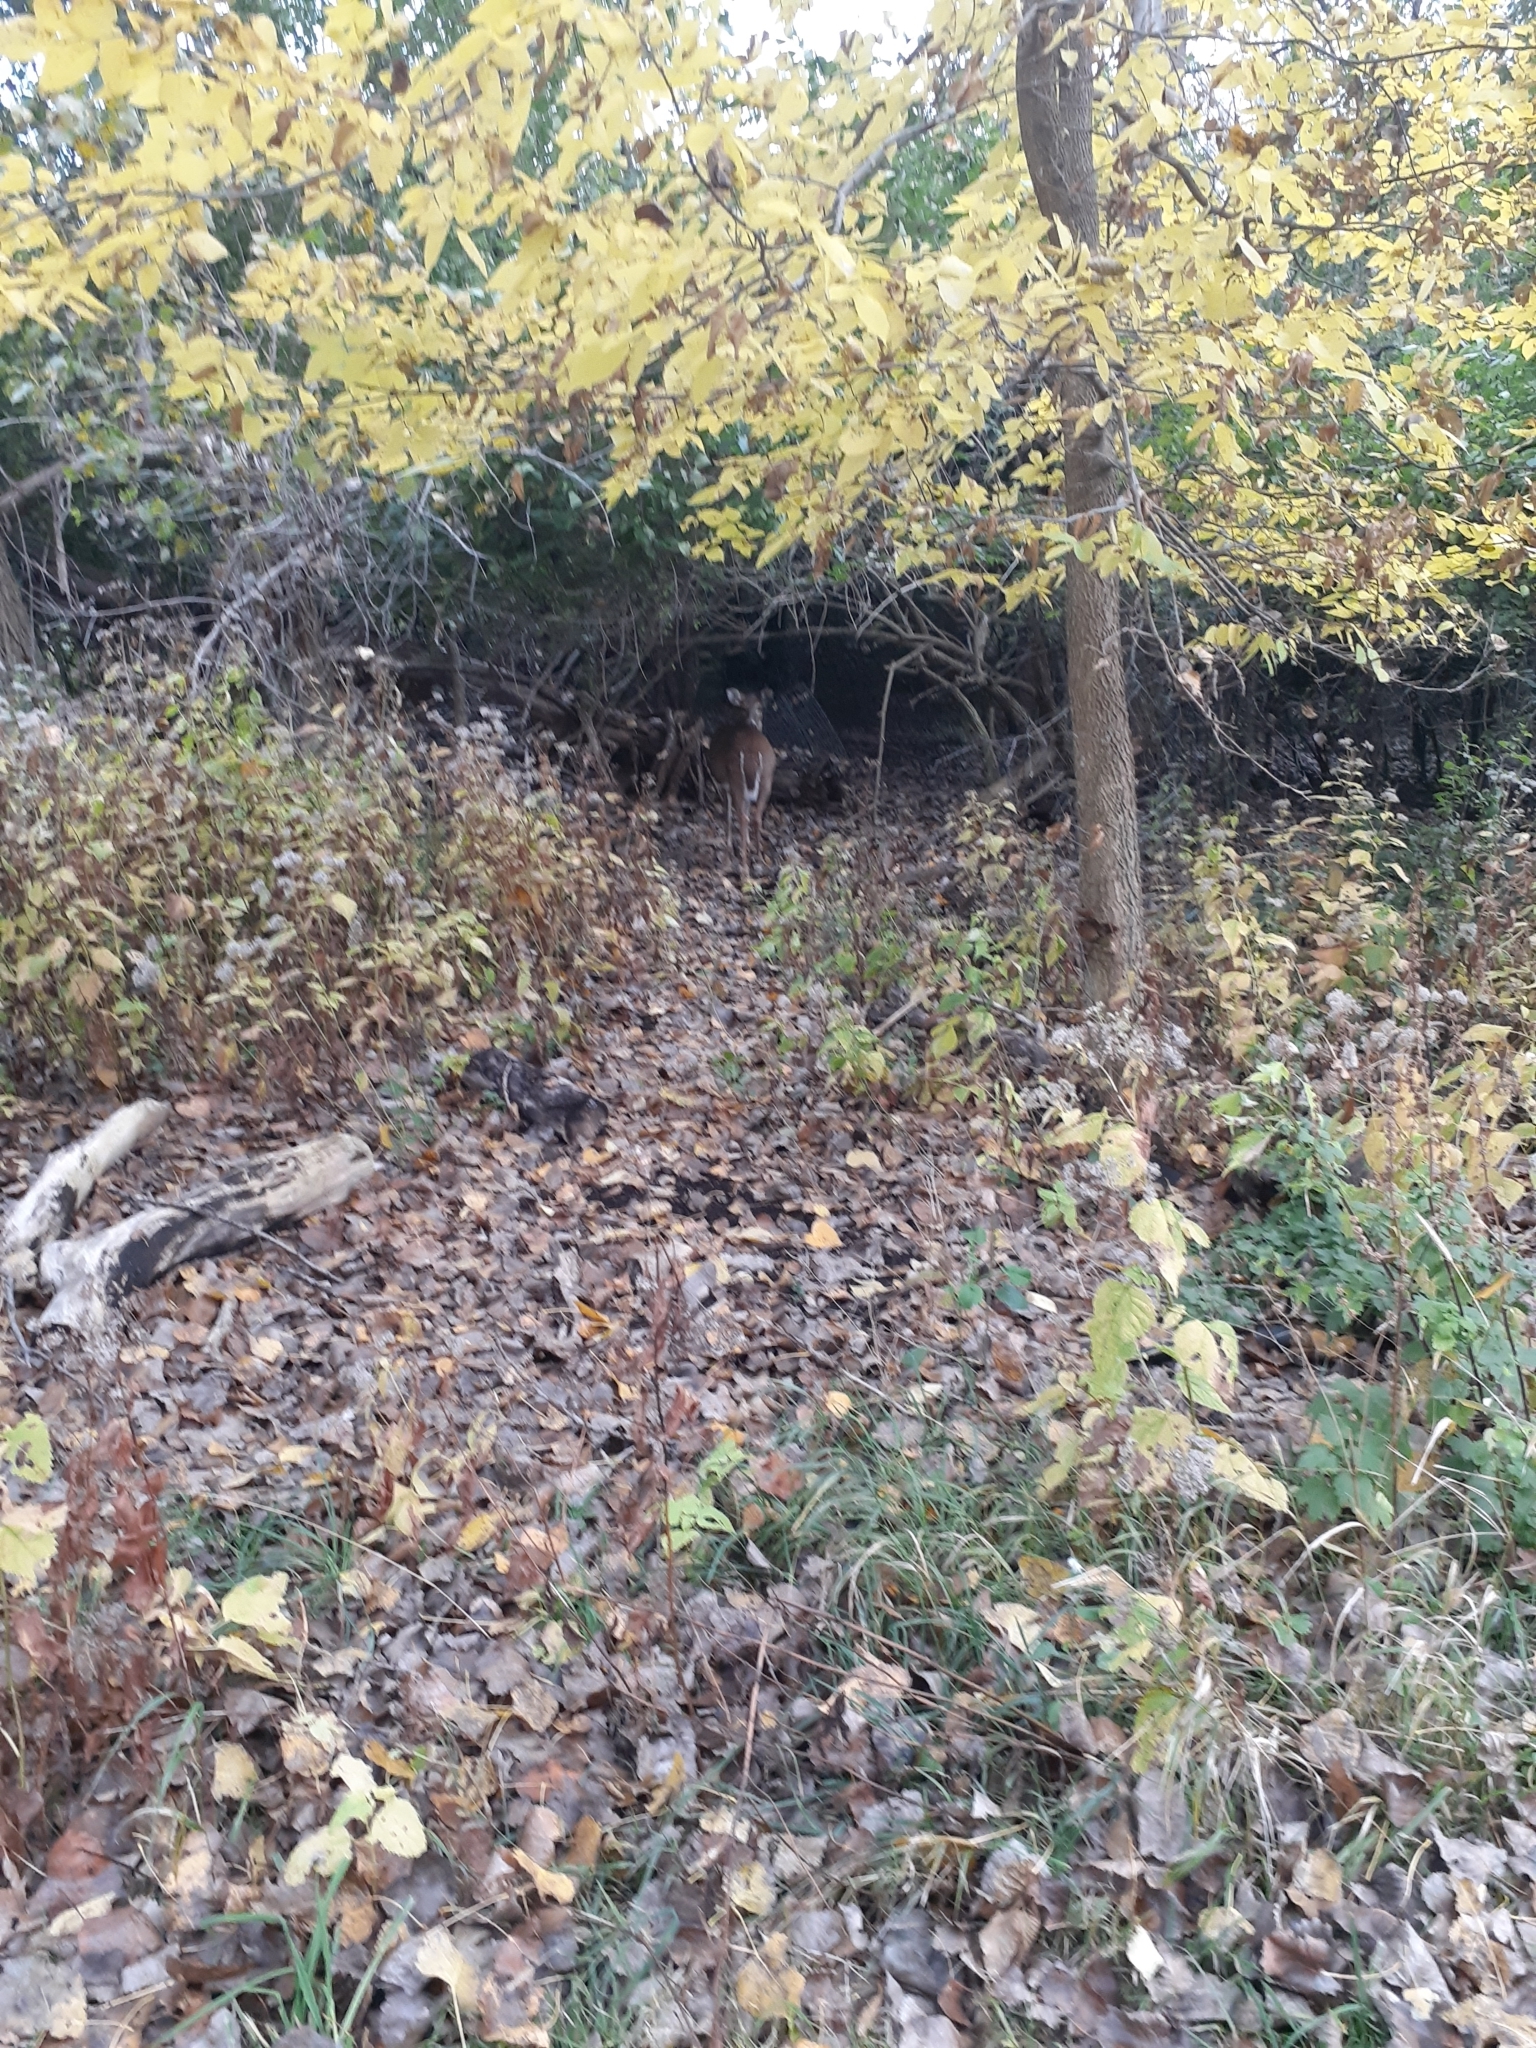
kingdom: Animalia
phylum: Chordata
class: Mammalia
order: Artiodactyla
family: Cervidae
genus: Odocoileus
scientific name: Odocoileus virginianus
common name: White-tailed deer
